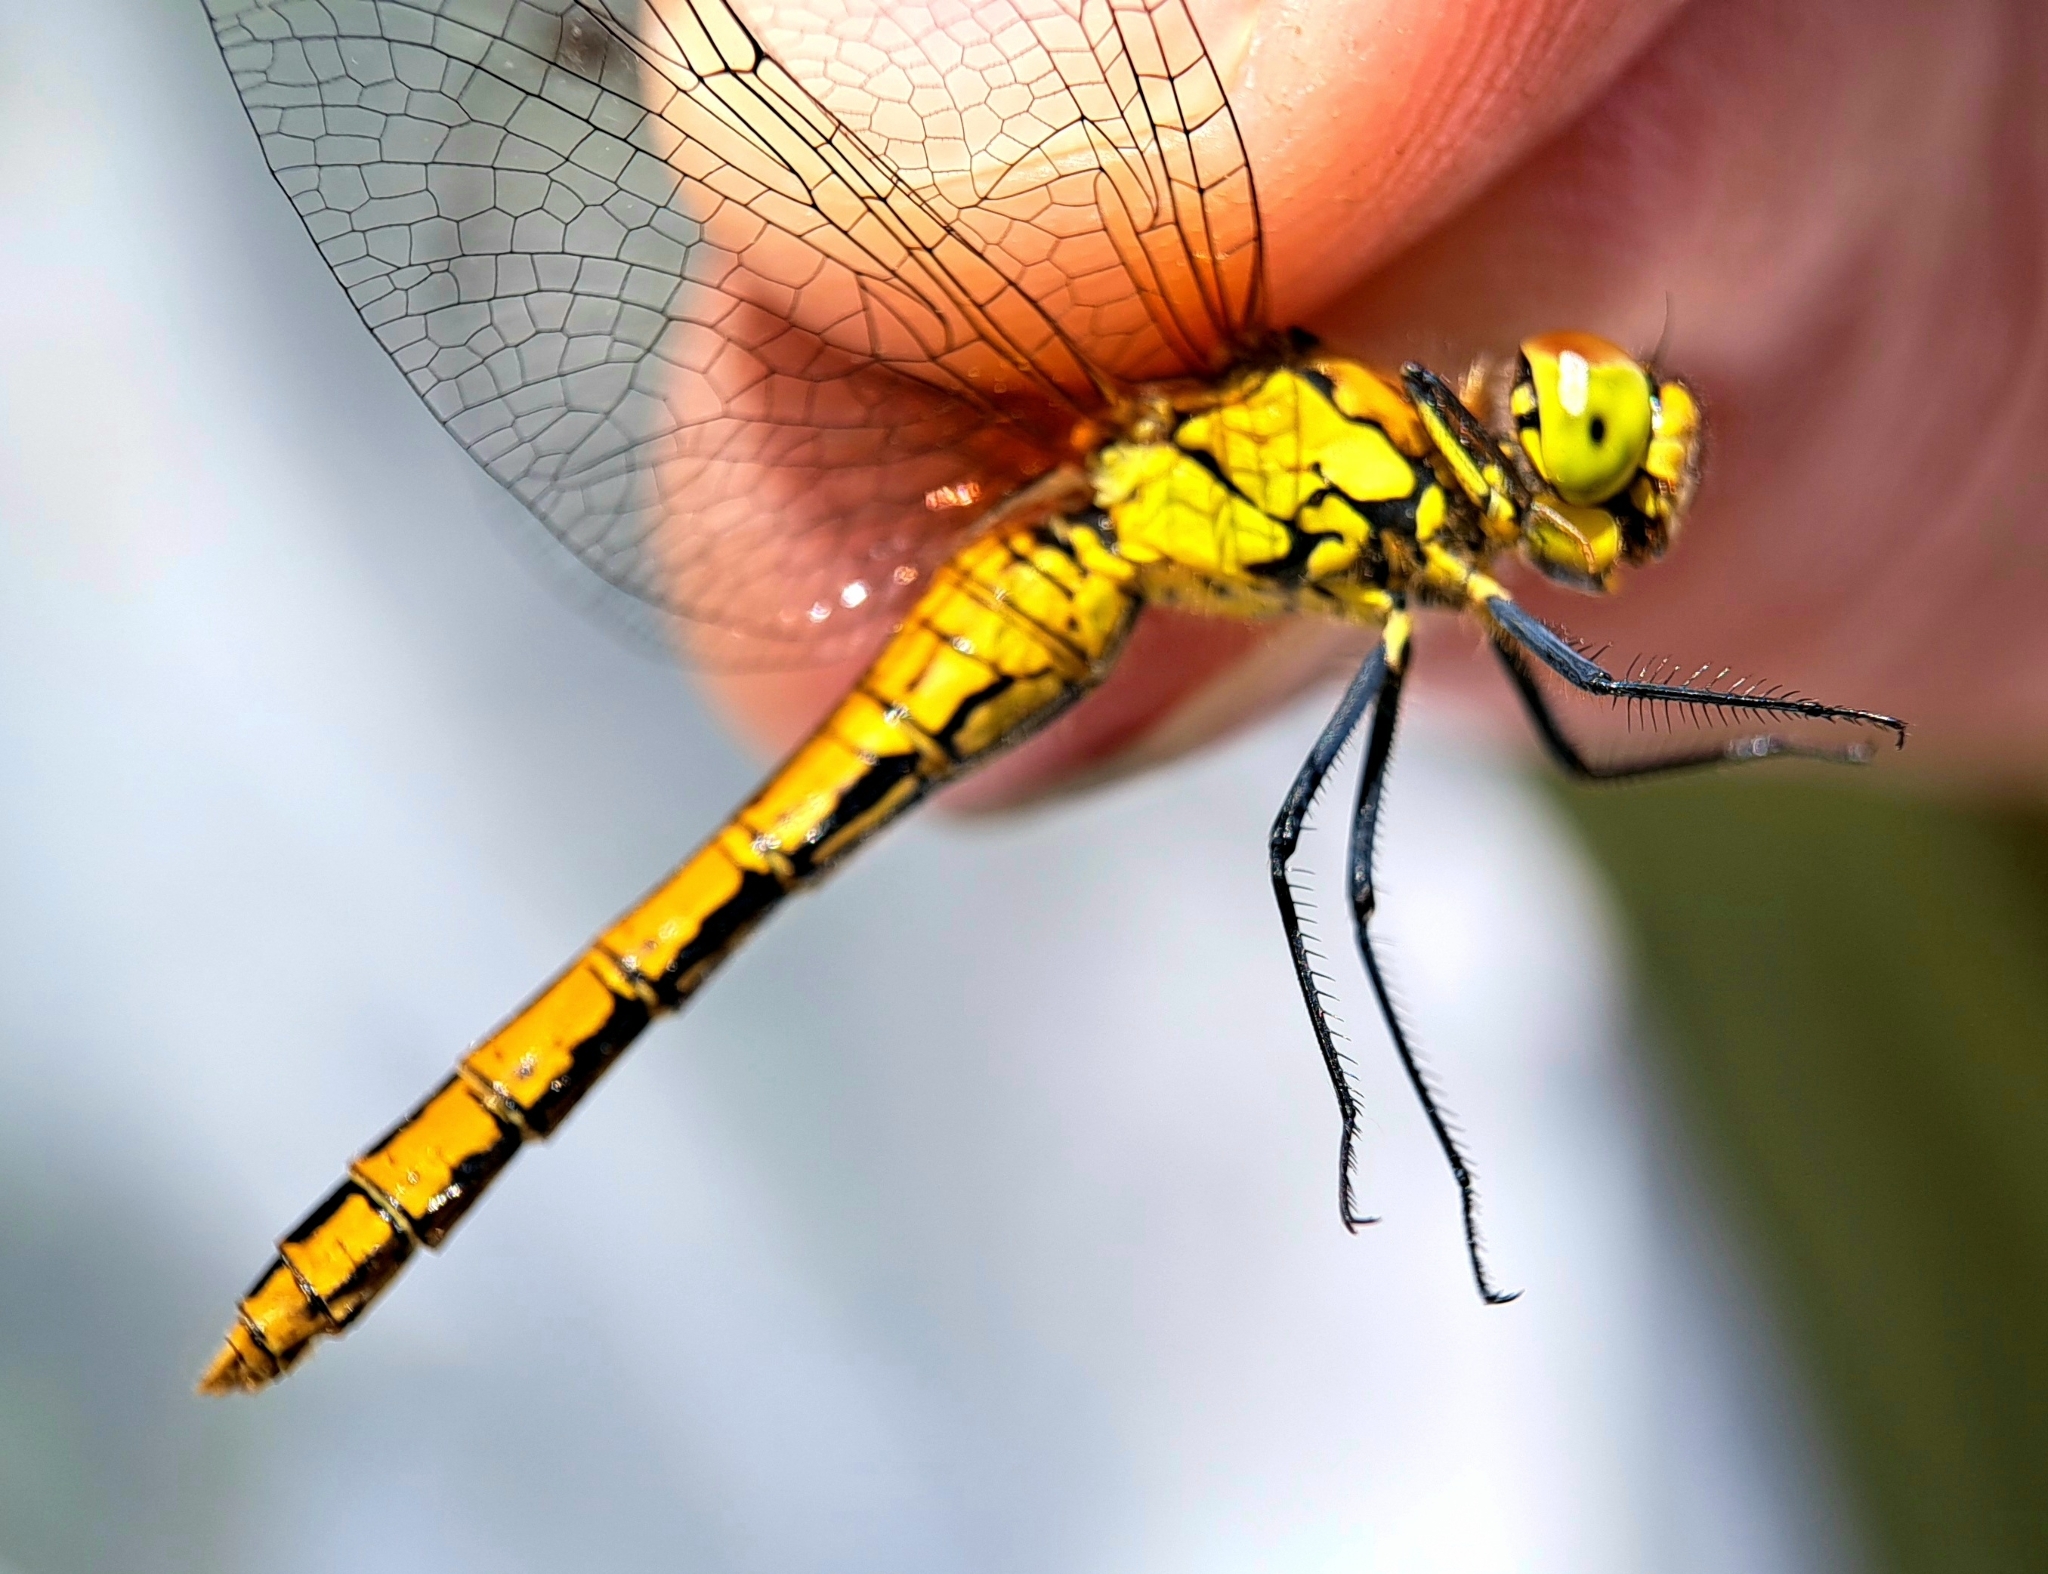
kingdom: Animalia
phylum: Arthropoda
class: Insecta
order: Odonata
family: Libellulidae
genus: Sympetrum
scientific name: Sympetrum sanguineum
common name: Ruddy darter
